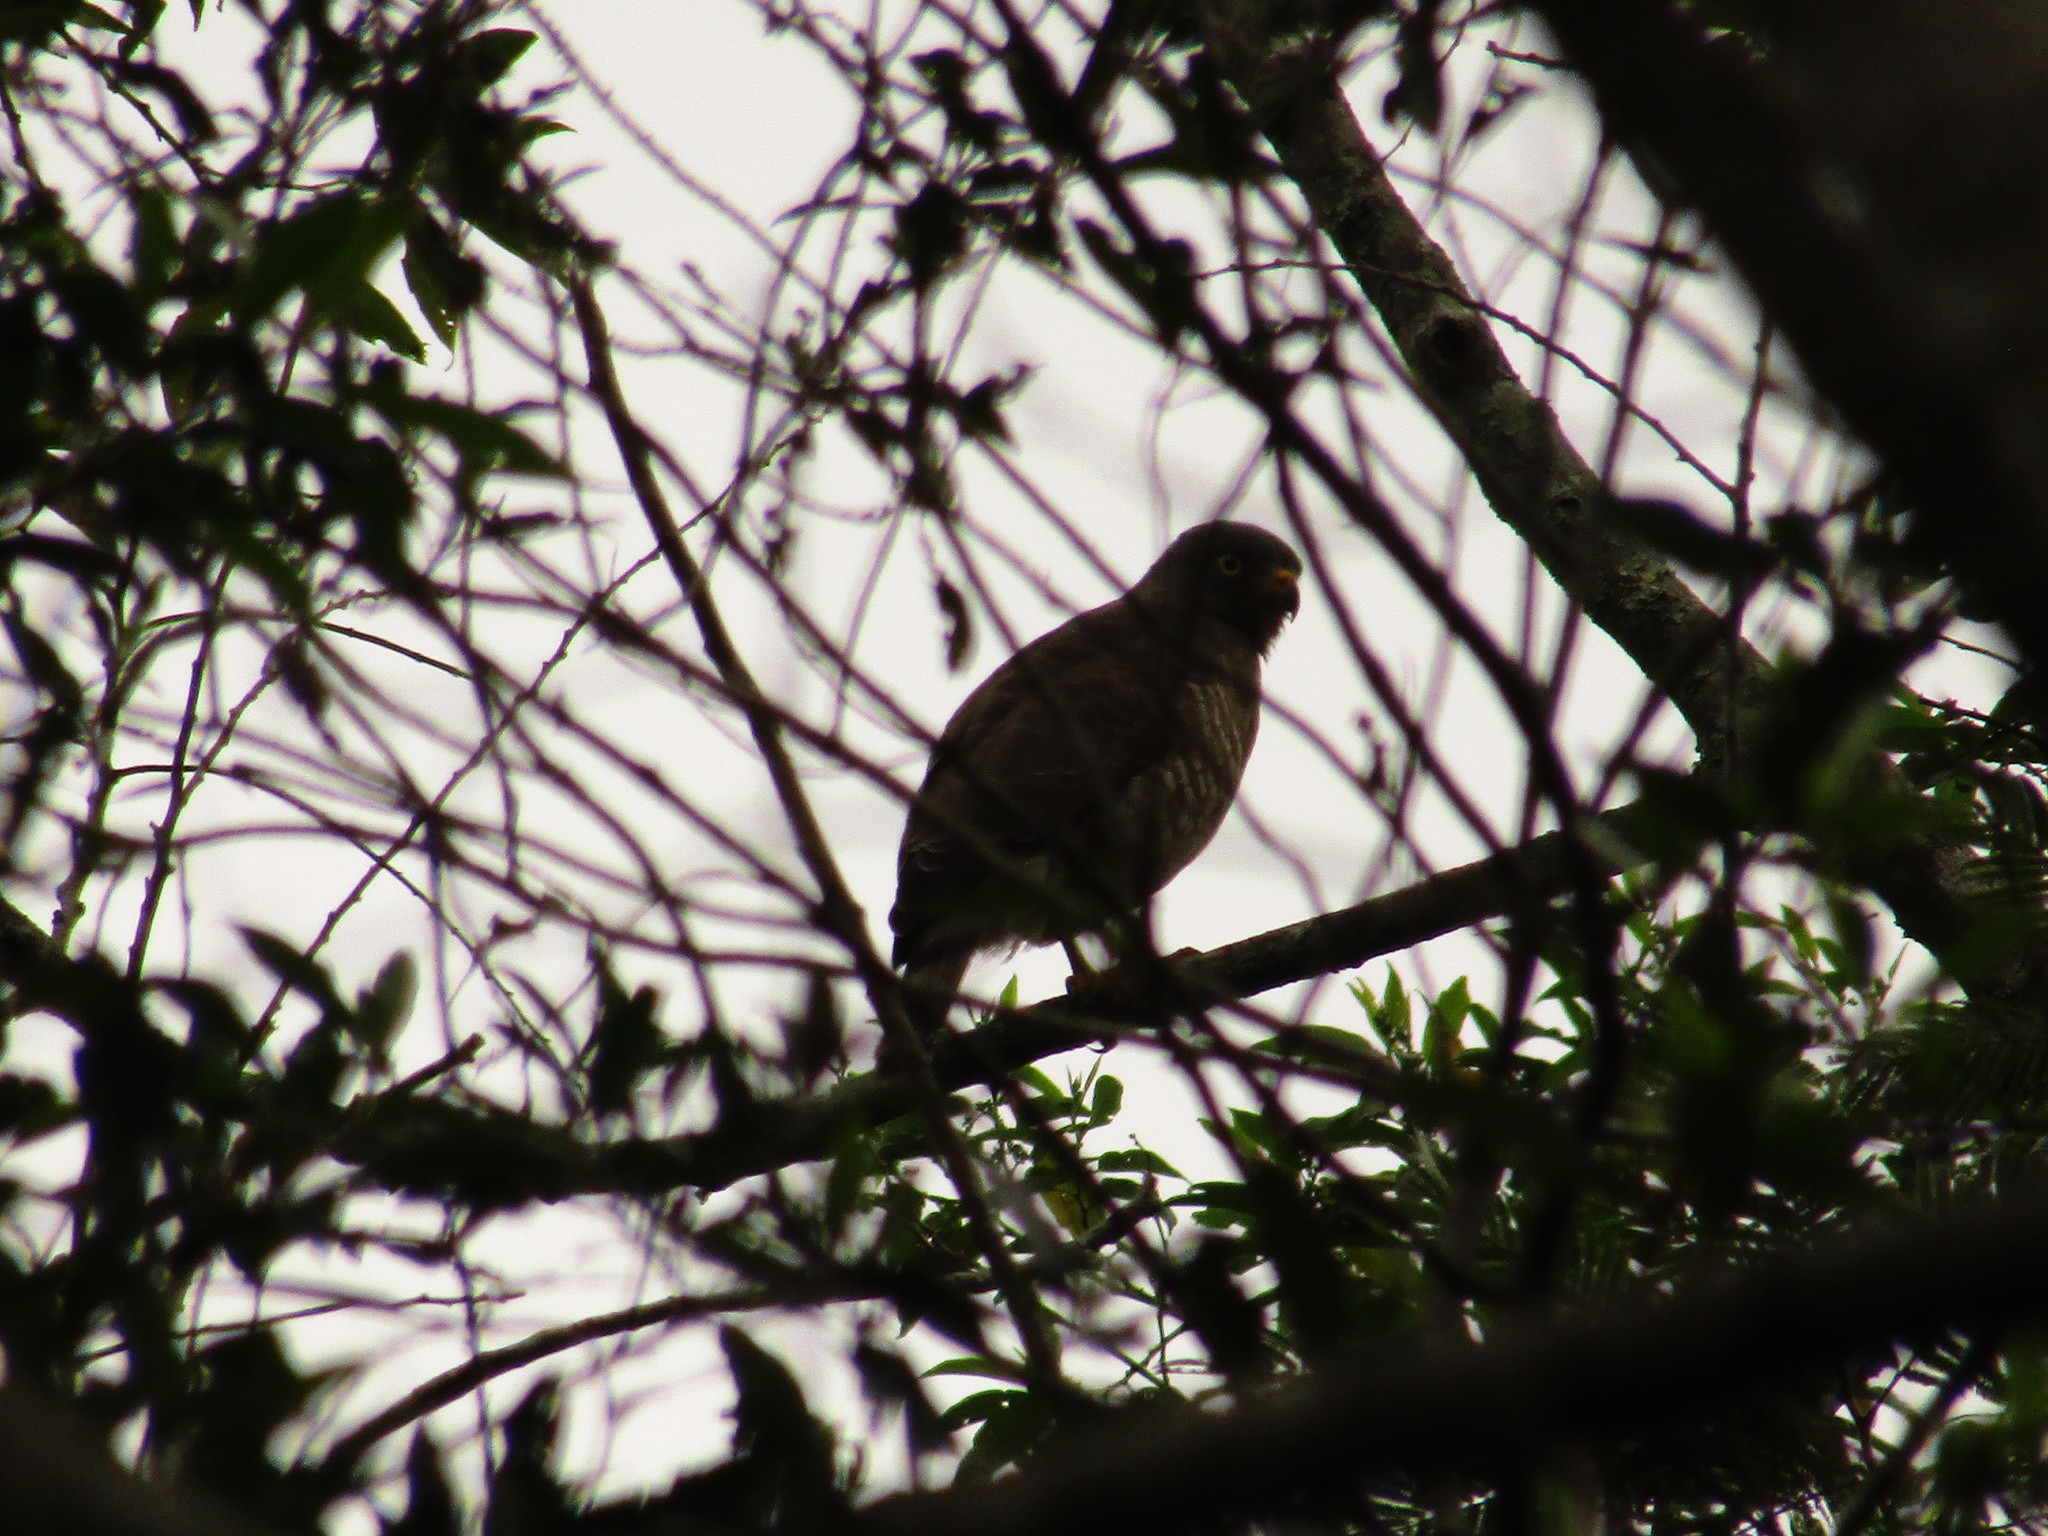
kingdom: Animalia
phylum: Chordata
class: Aves
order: Accipitriformes
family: Accipitridae
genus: Rupornis
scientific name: Rupornis magnirostris
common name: Roadside hawk
